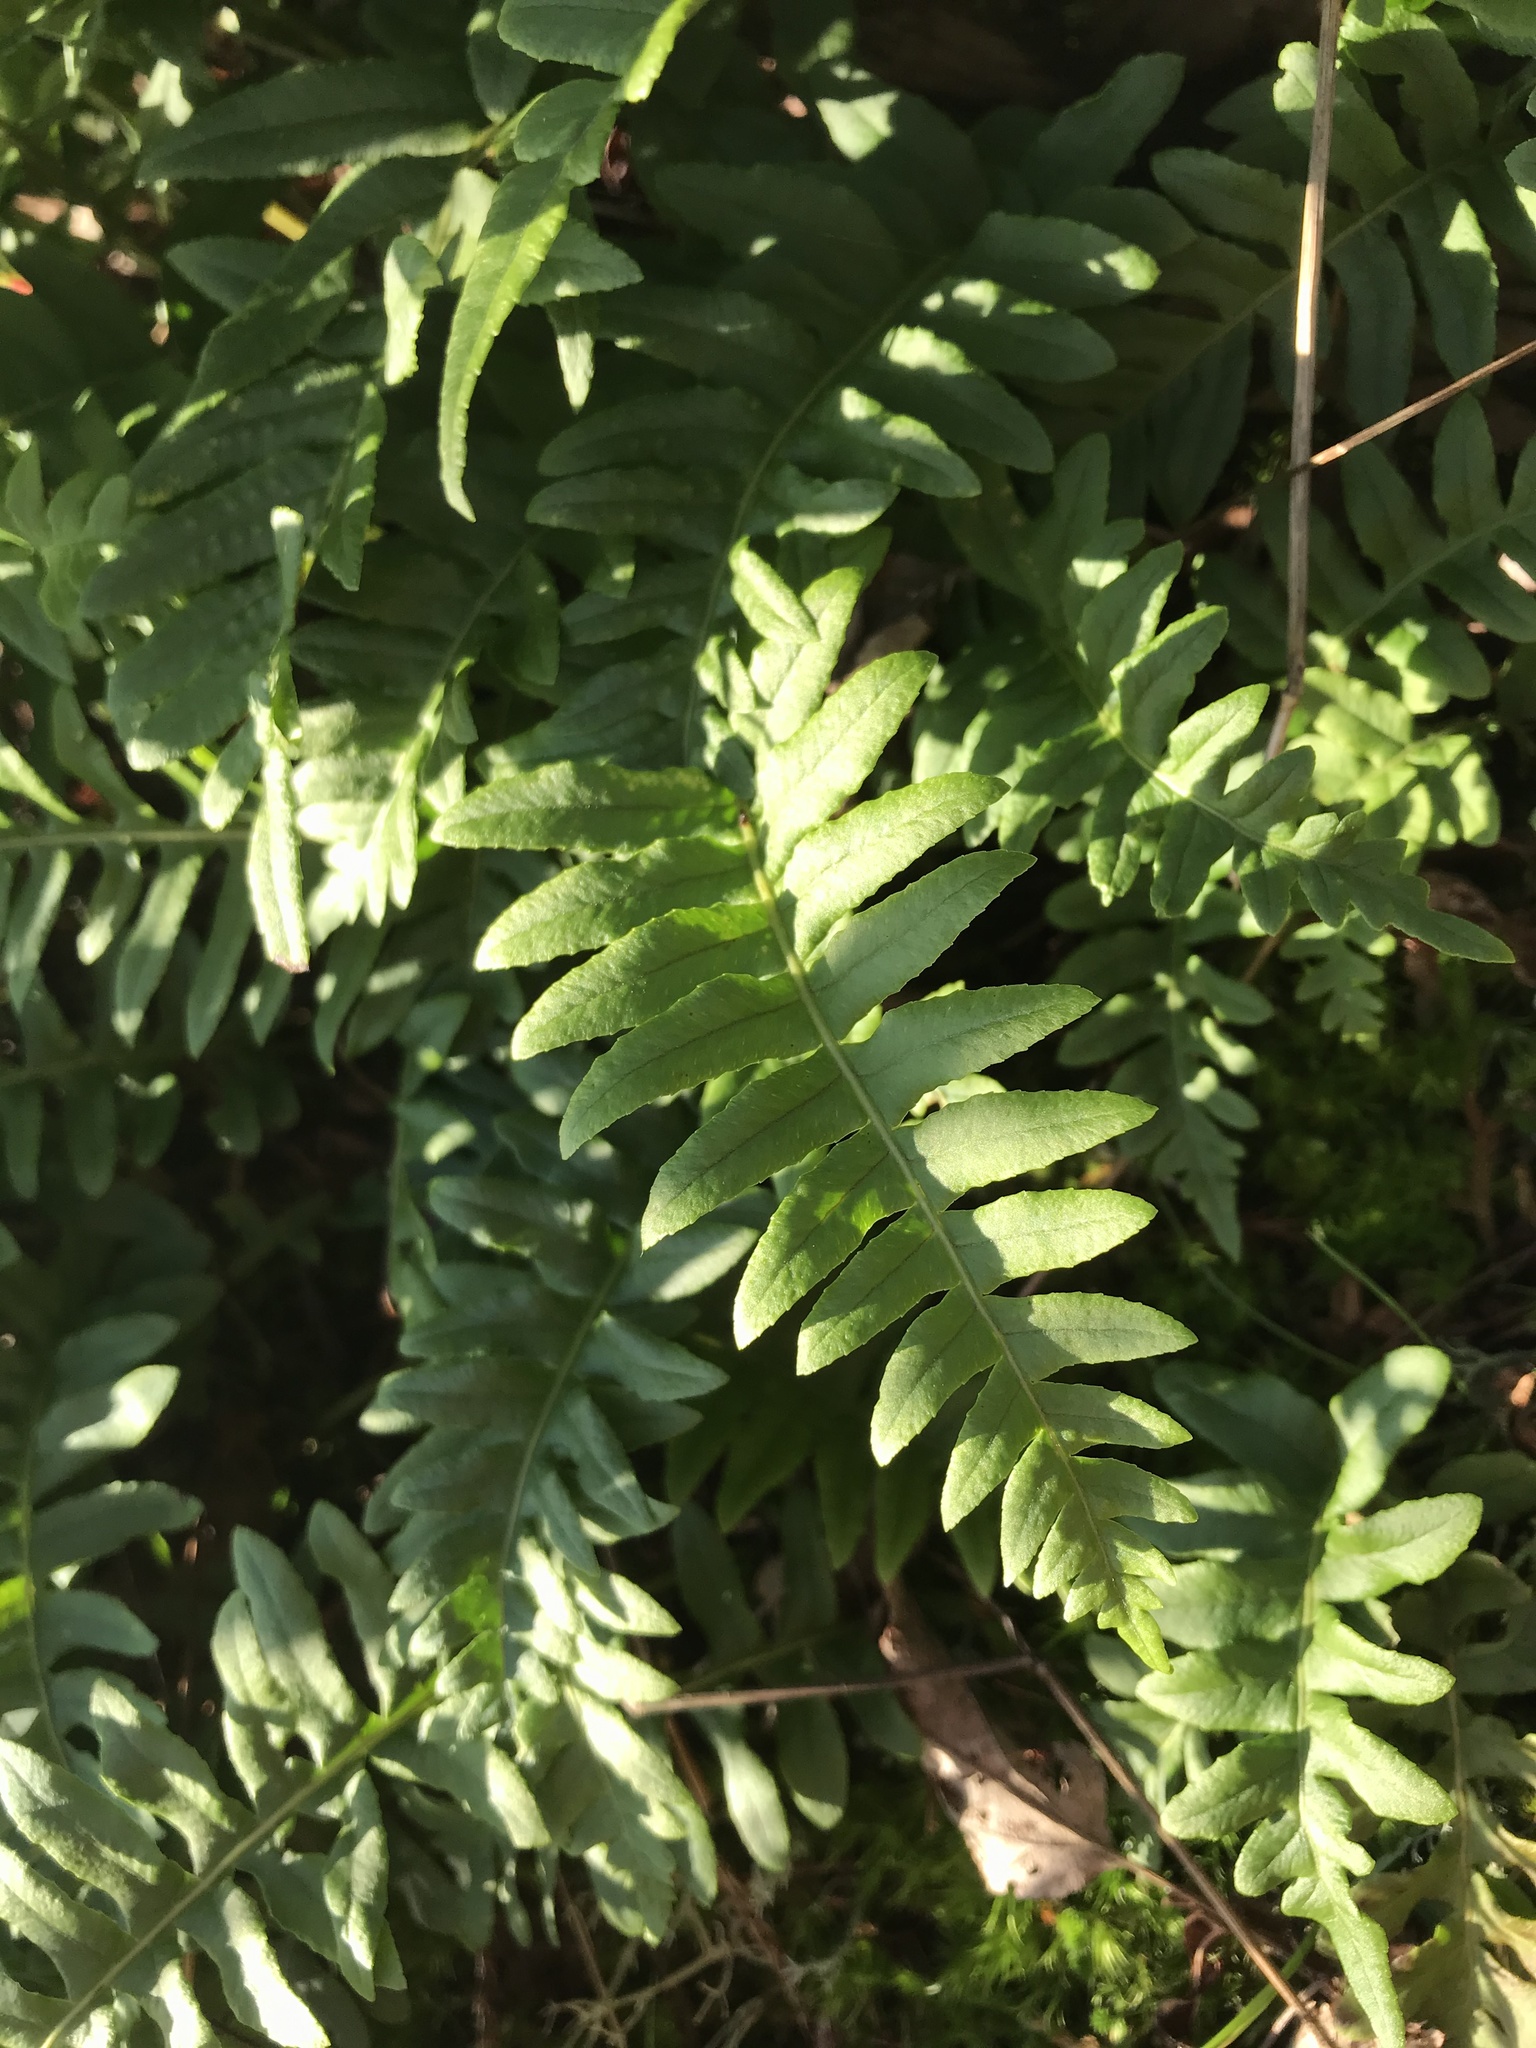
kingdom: Plantae
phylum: Tracheophyta
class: Polypodiopsida
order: Polypodiales
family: Polypodiaceae
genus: Polypodium
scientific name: Polypodium glycyrrhiza
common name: Licorice fern
